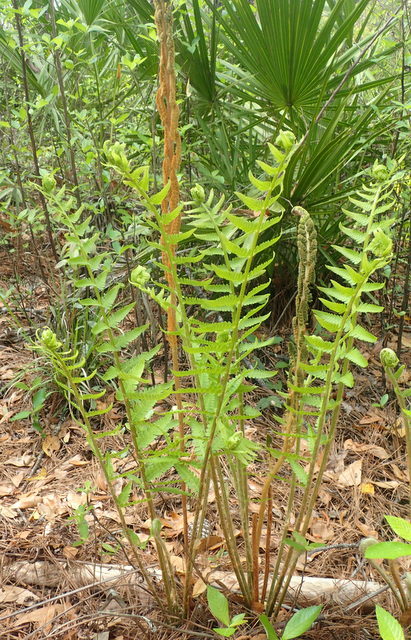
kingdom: Plantae
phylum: Tracheophyta
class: Polypodiopsida
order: Osmundales
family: Osmundaceae
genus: Osmundastrum
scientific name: Osmundastrum cinnamomeum
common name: Cinnamon fern
